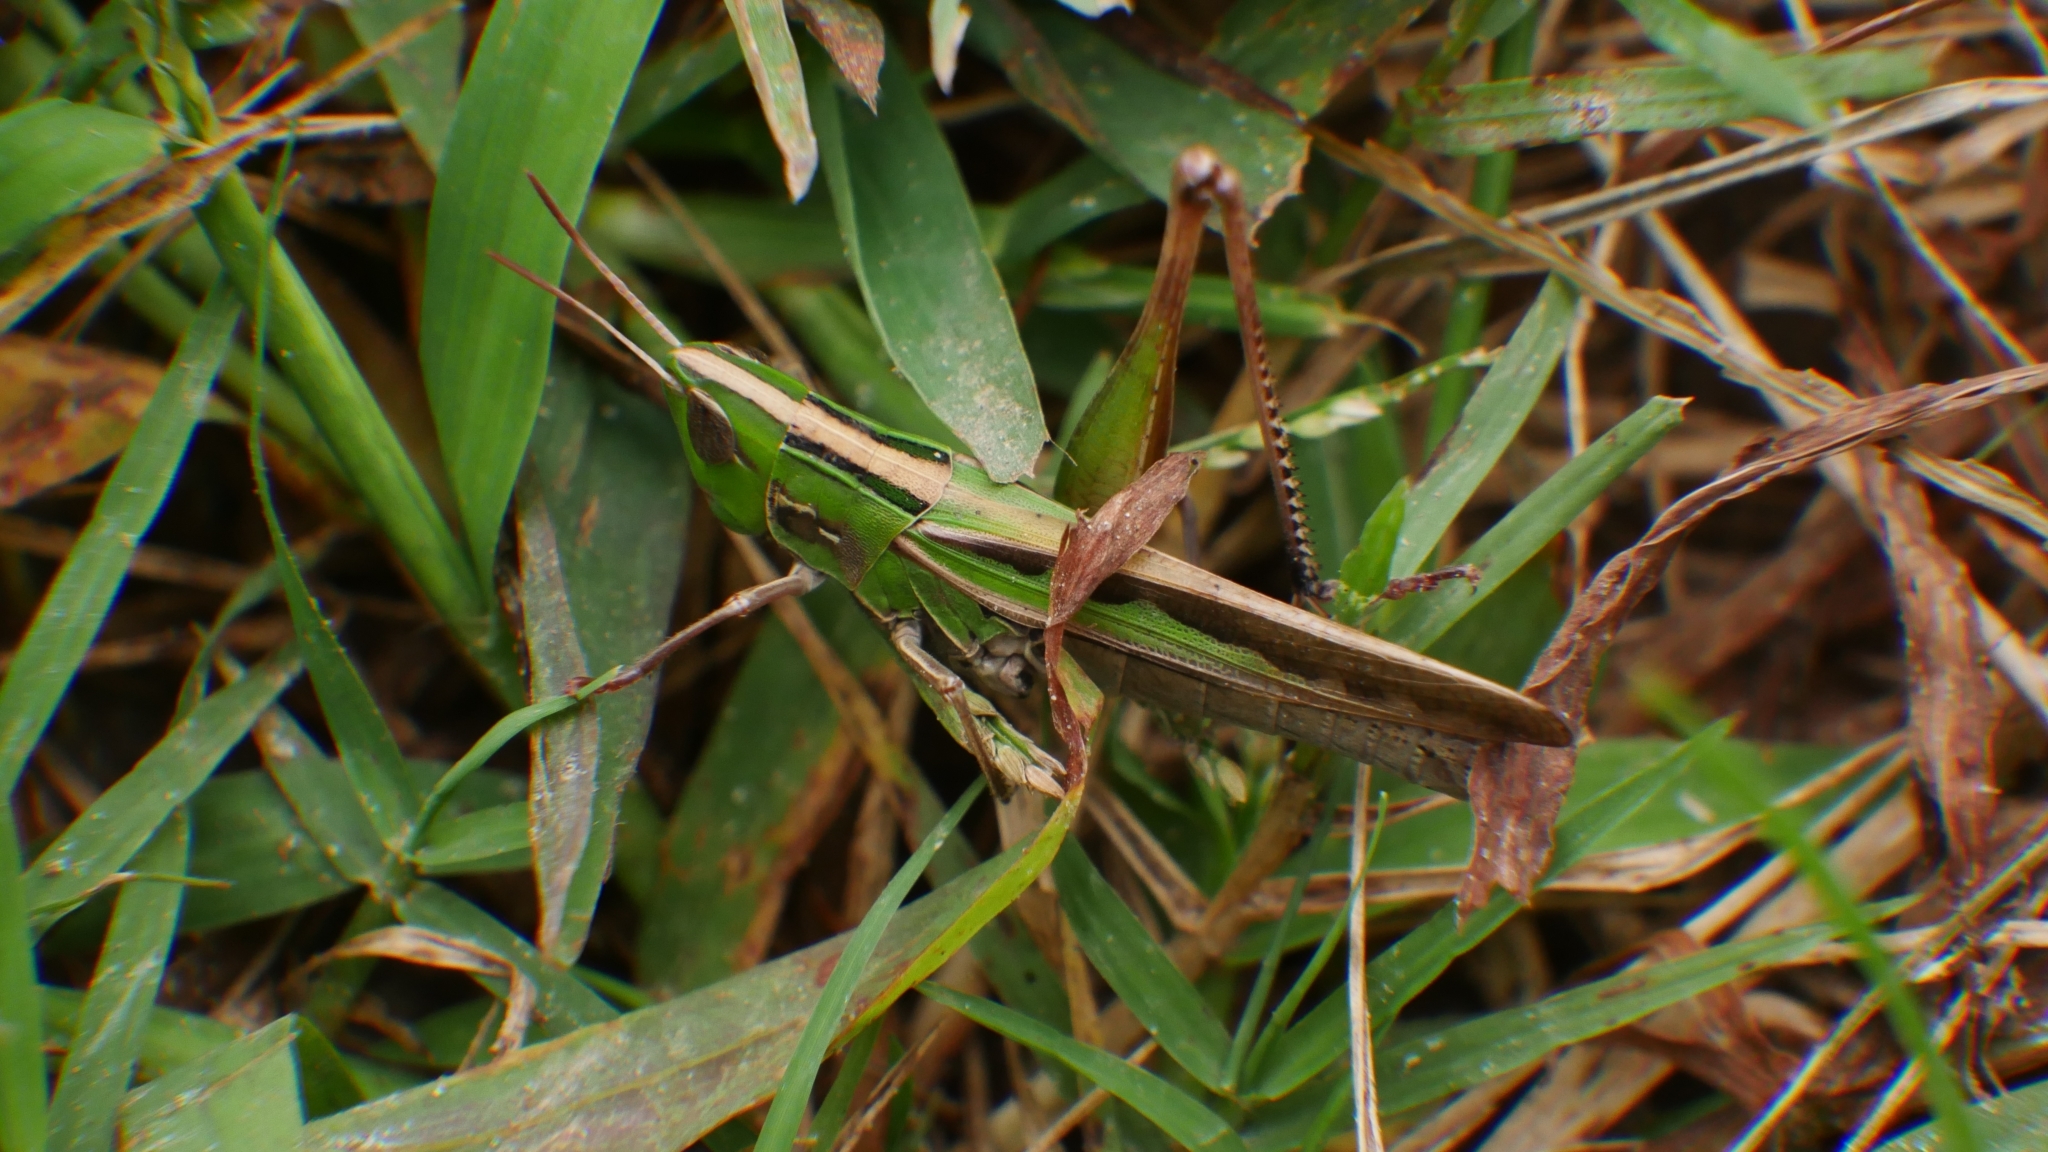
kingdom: Animalia
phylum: Arthropoda
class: Insecta
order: Orthoptera
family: Acrididae
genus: Syrbula
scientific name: Syrbula admirabilis
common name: Handsome grasshopper
